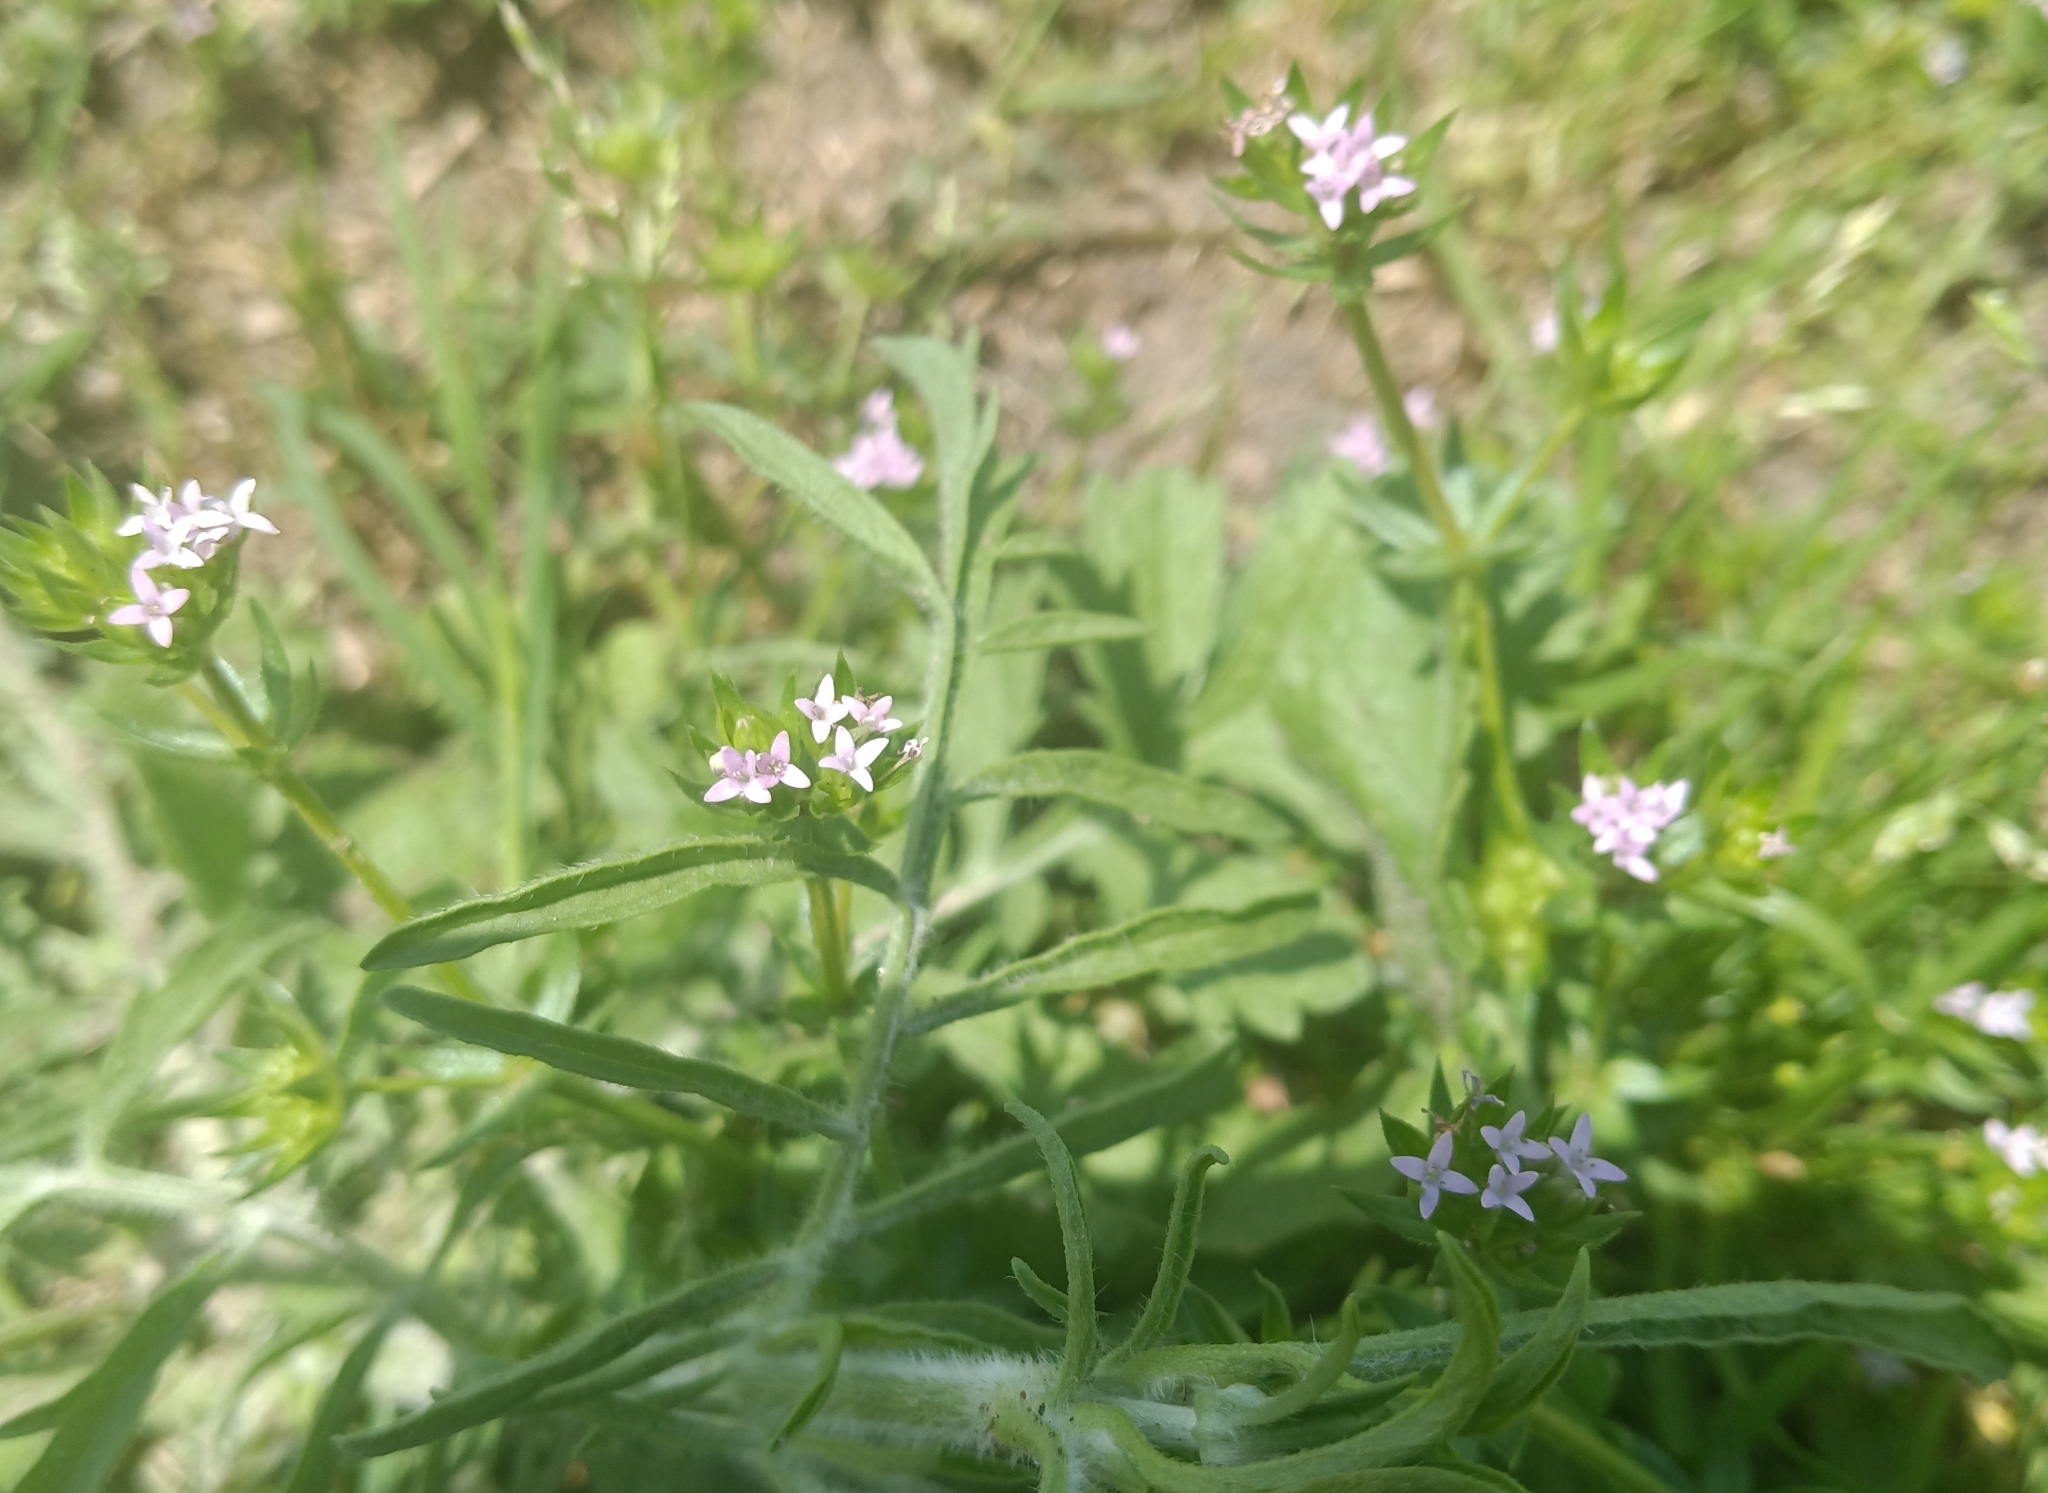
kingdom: Plantae
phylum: Tracheophyta
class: Magnoliopsida
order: Gentianales
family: Rubiaceae
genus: Sherardia
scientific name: Sherardia arvensis
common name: Field madder
